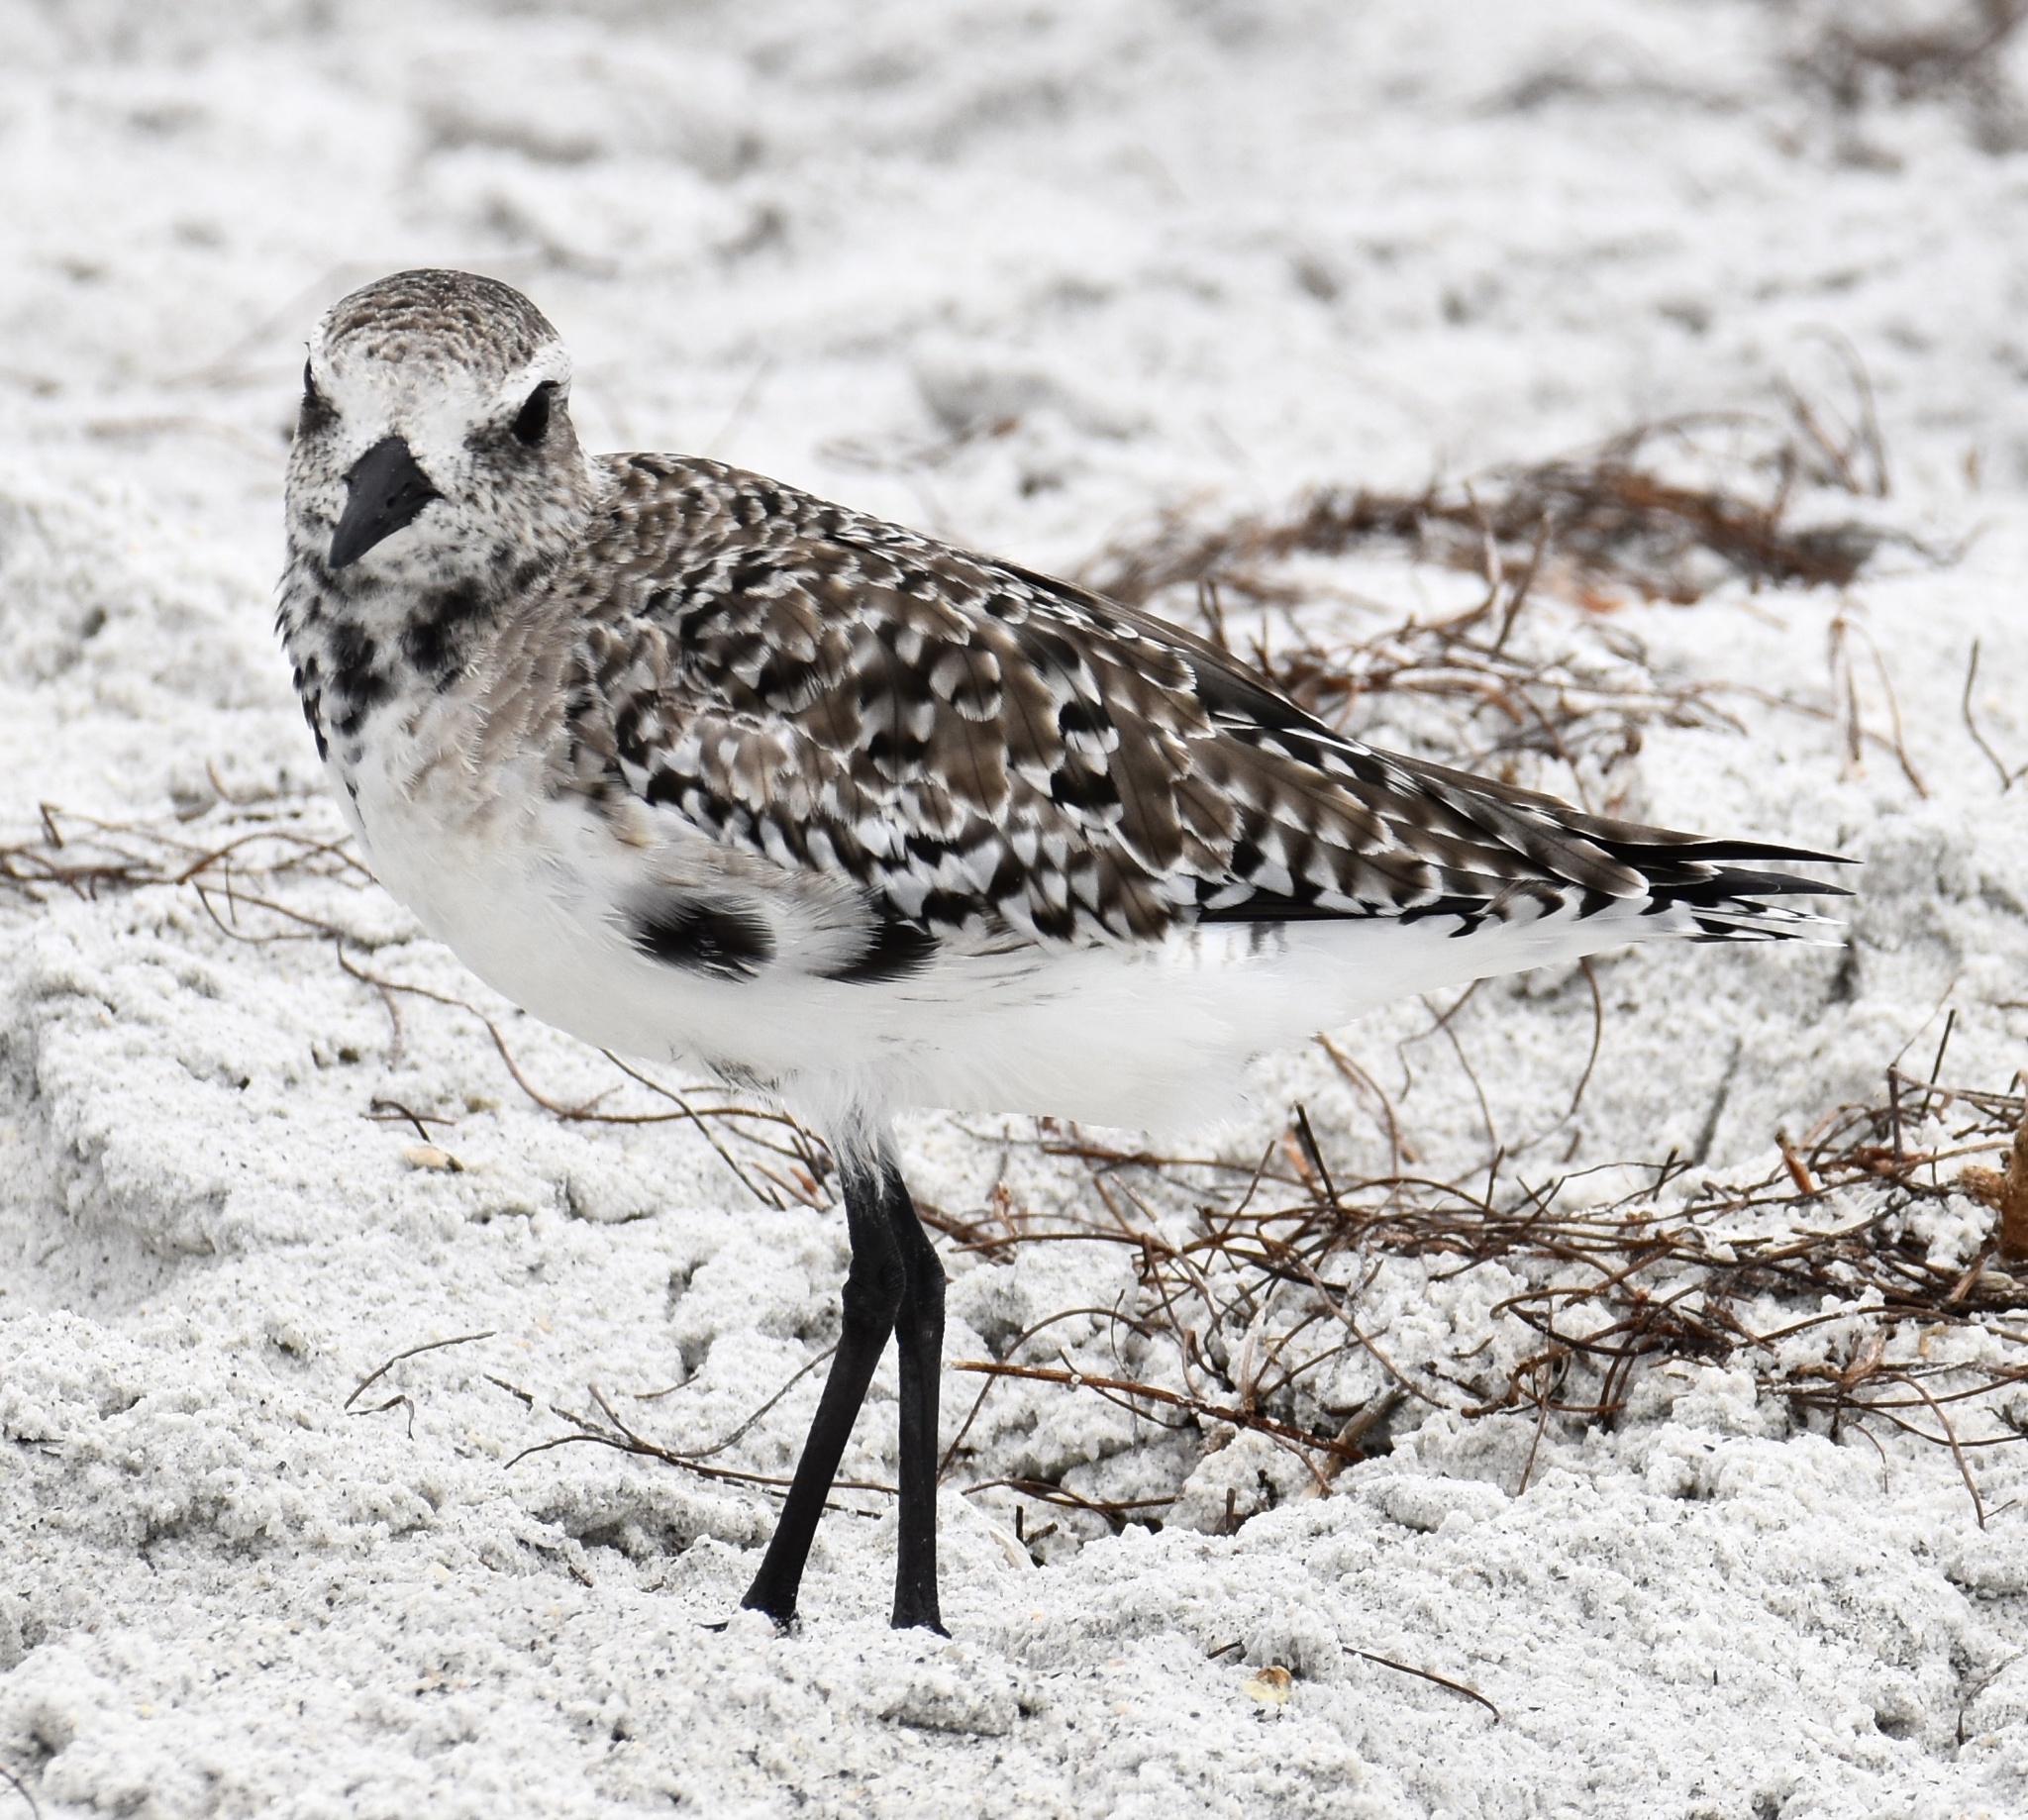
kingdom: Animalia
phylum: Chordata
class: Aves
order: Charadriiformes
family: Charadriidae
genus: Pluvialis
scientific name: Pluvialis squatarola
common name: Grey plover
